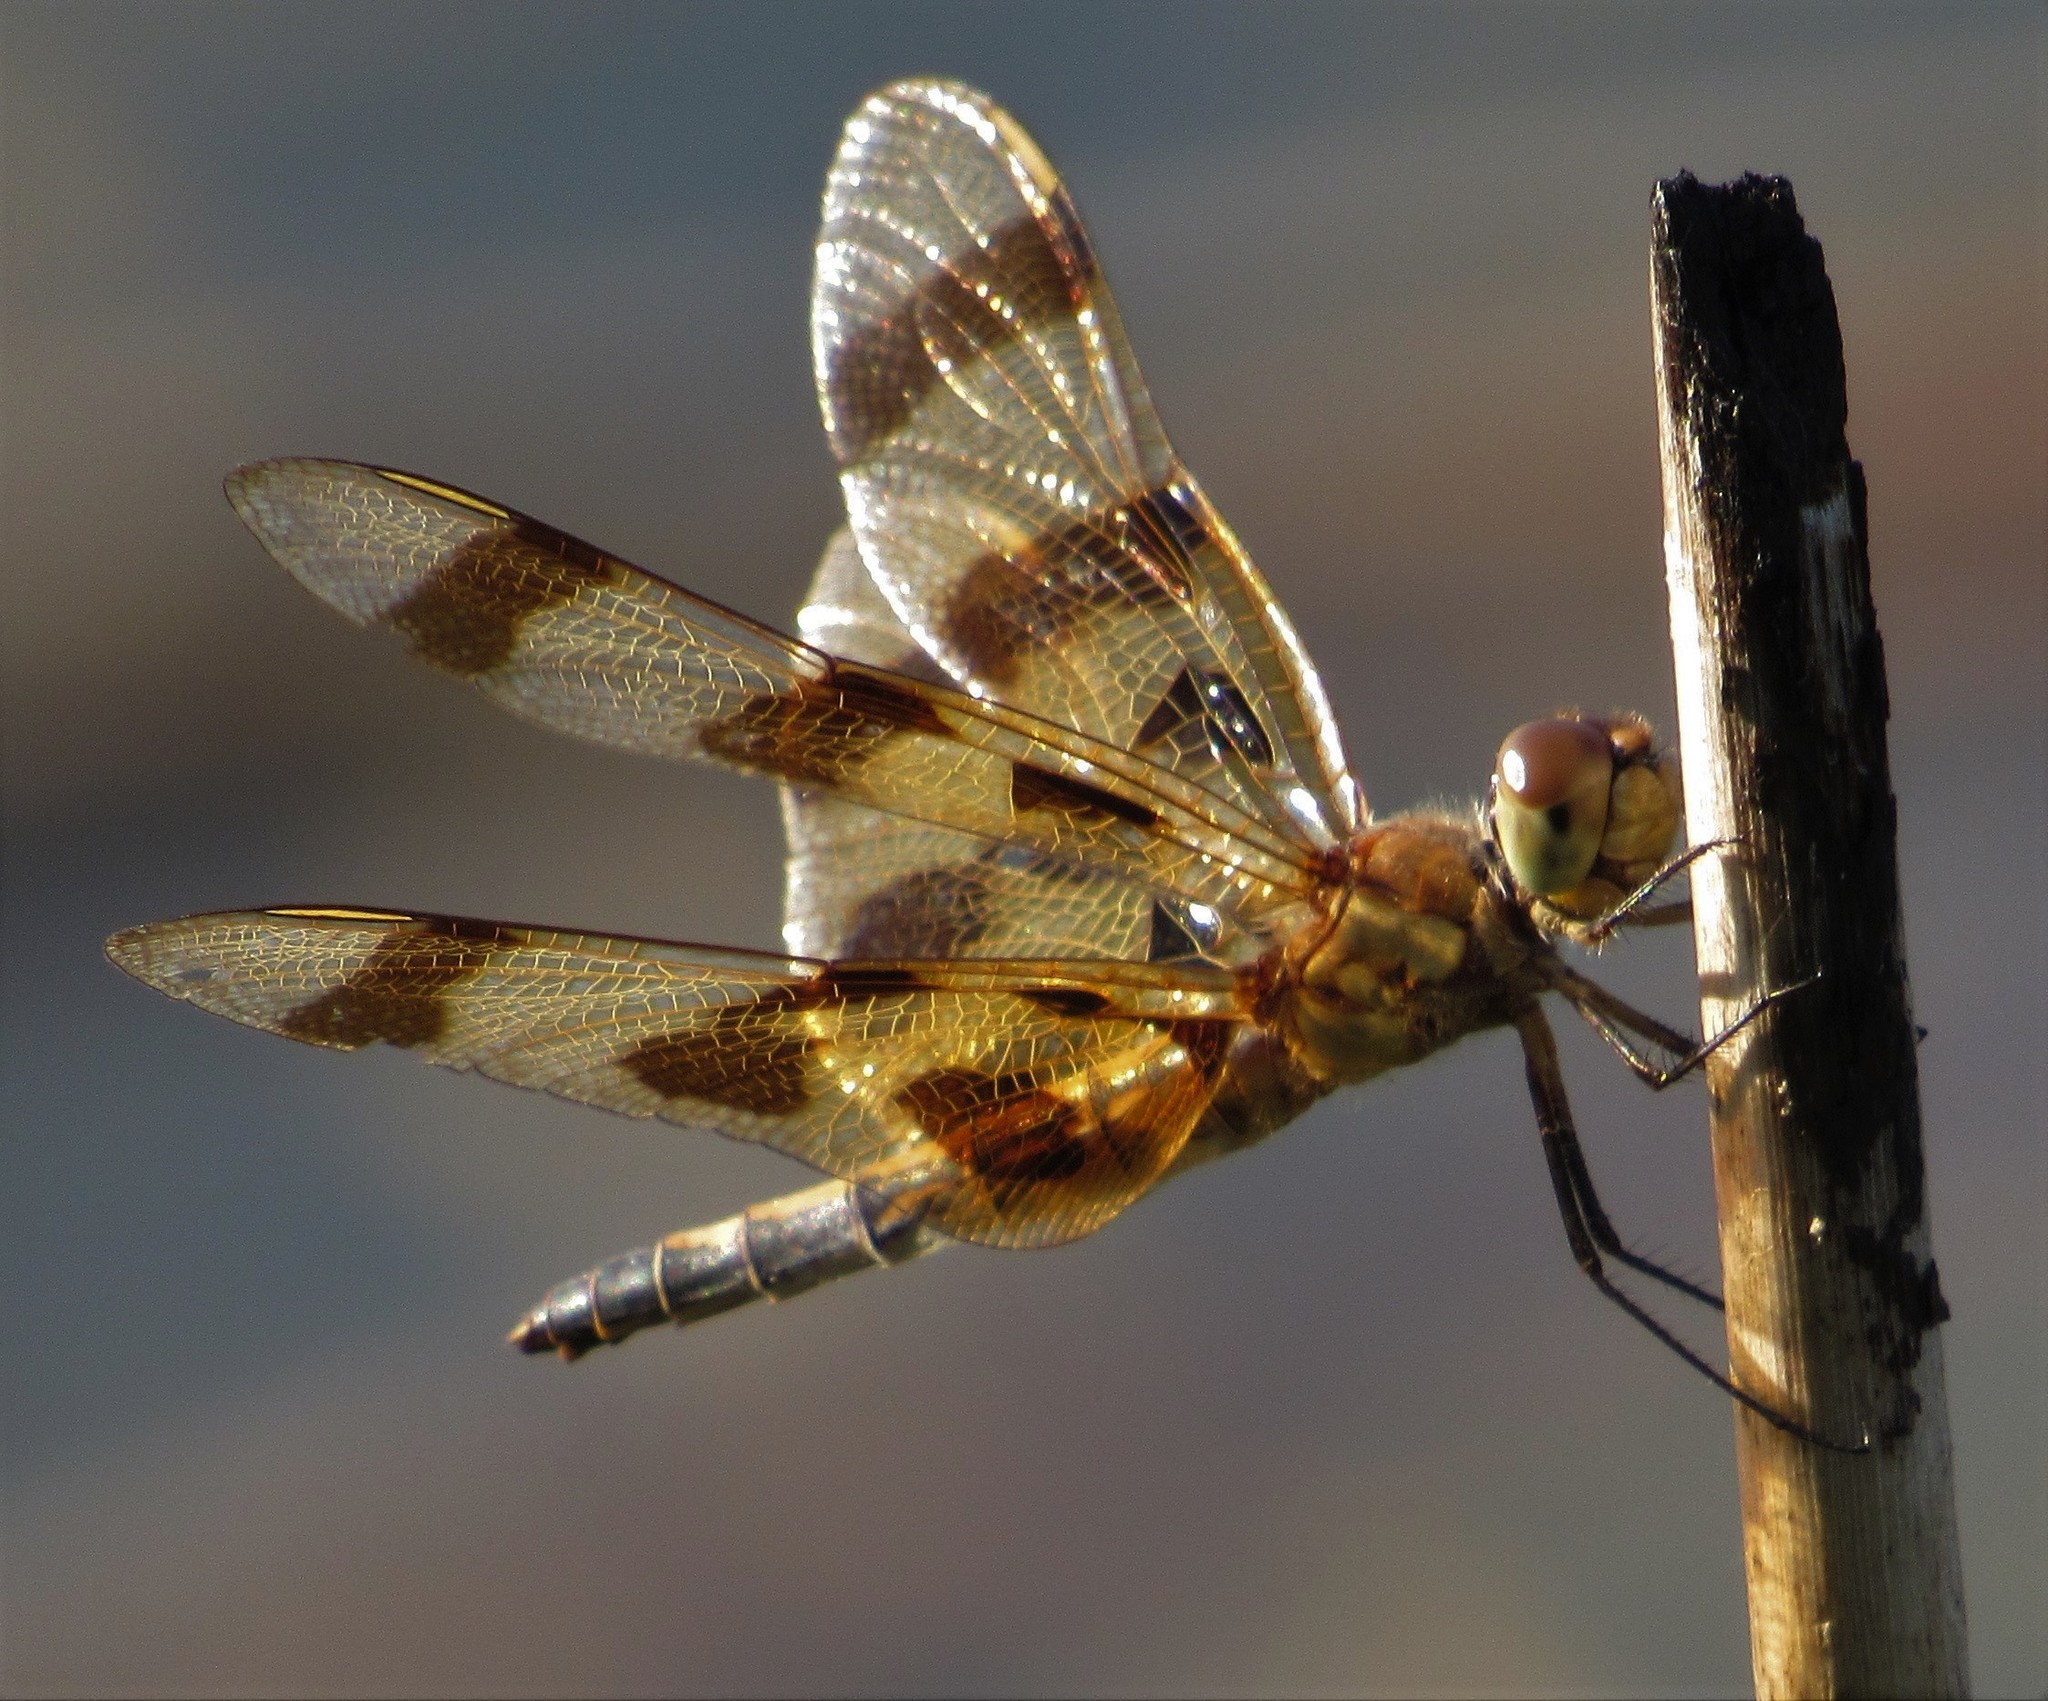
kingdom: Animalia
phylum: Arthropoda
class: Insecta
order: Odonata
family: Libellulidae
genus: Celithemis
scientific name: Celithemis eponina
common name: Halloween pennant
